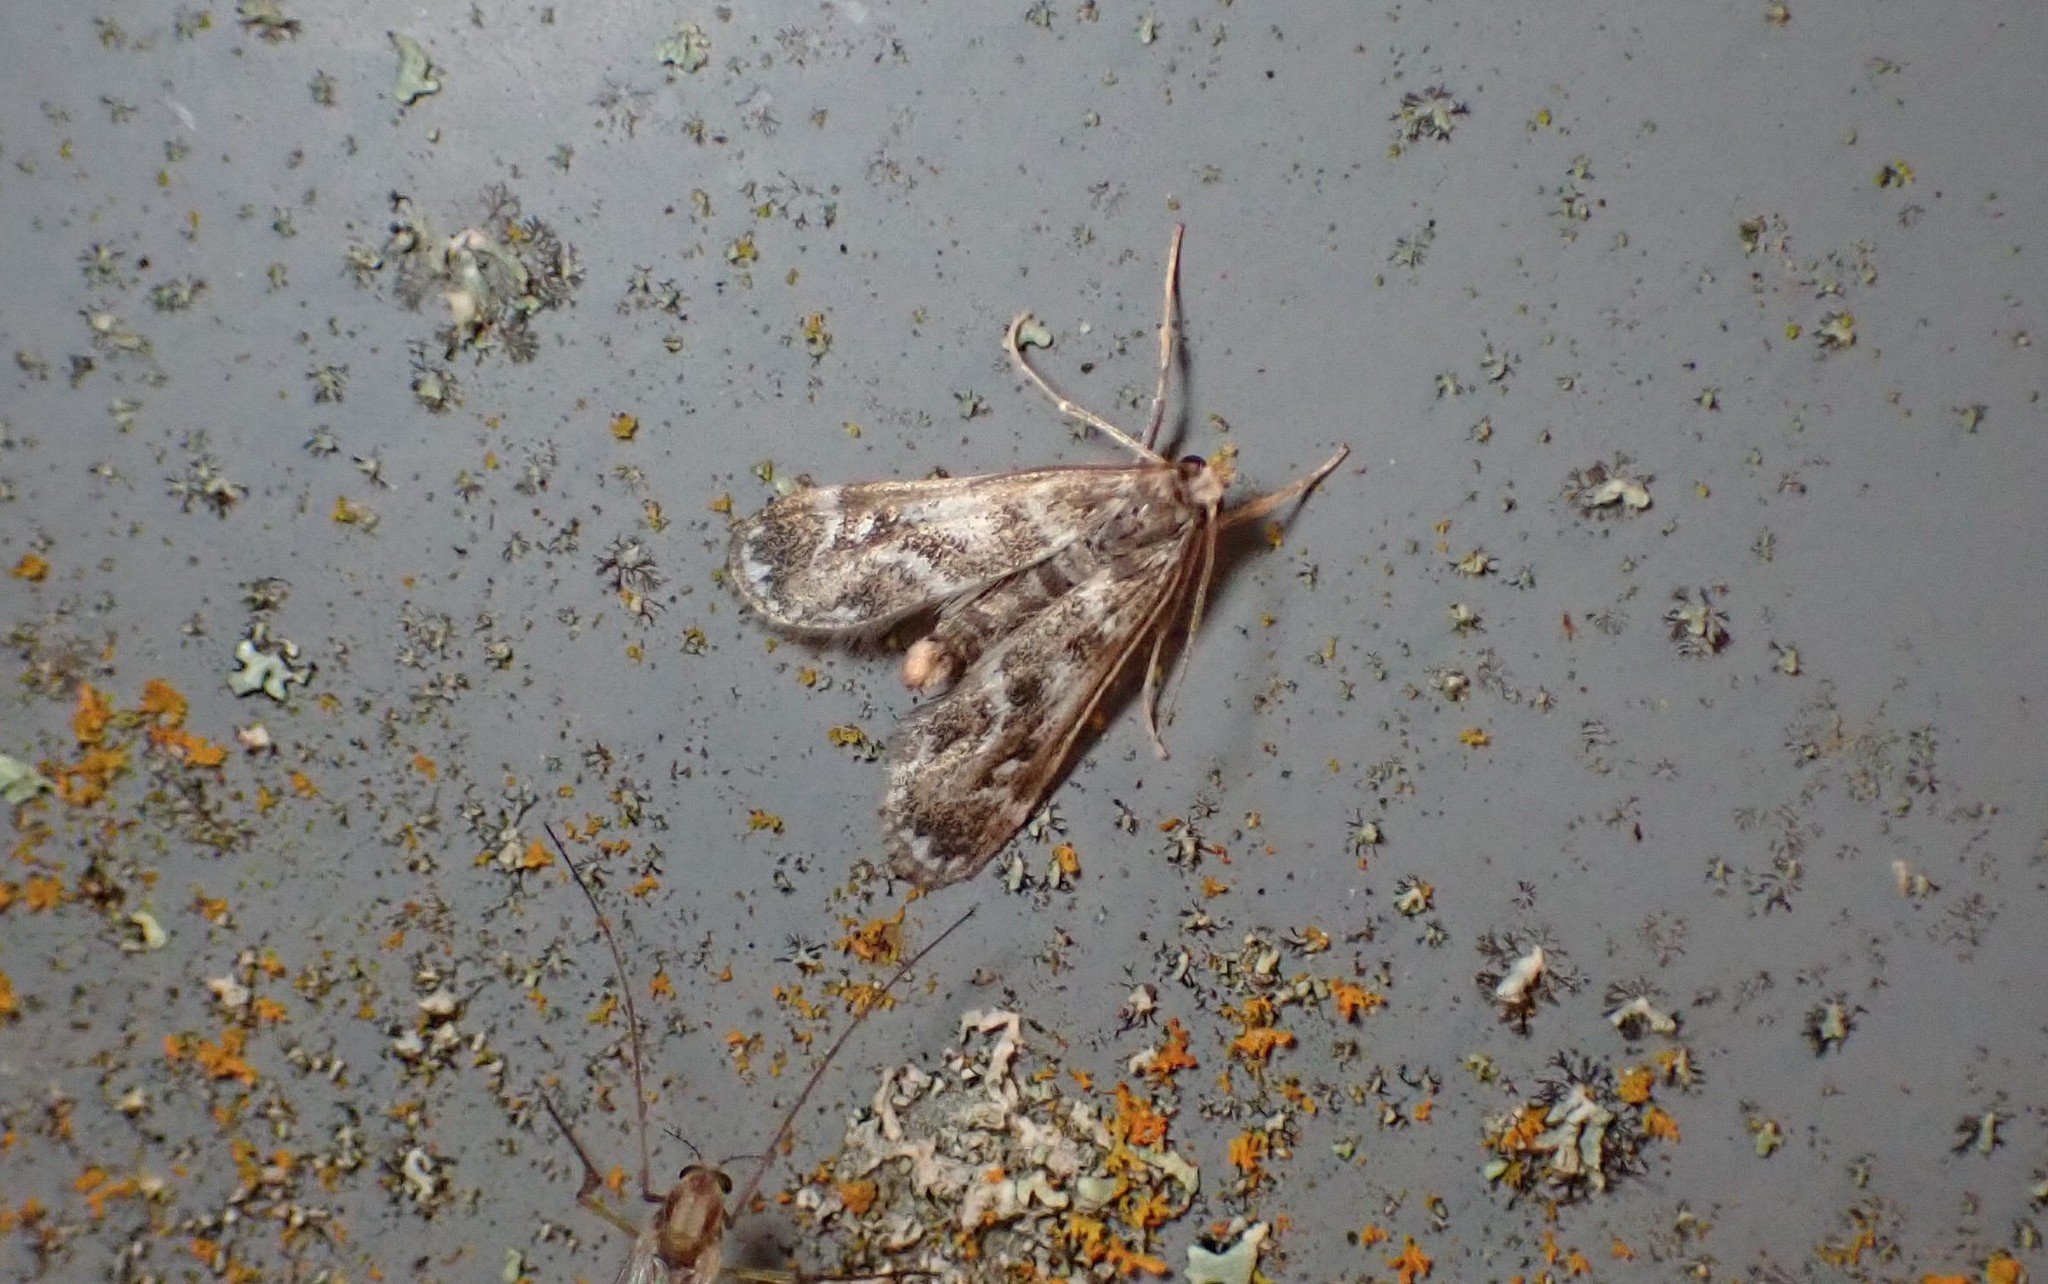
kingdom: Animalia
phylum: Arthropoda
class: Insecta
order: Lepidoptera
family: Crambidae
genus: Hygraula
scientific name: Hygraula nitens
